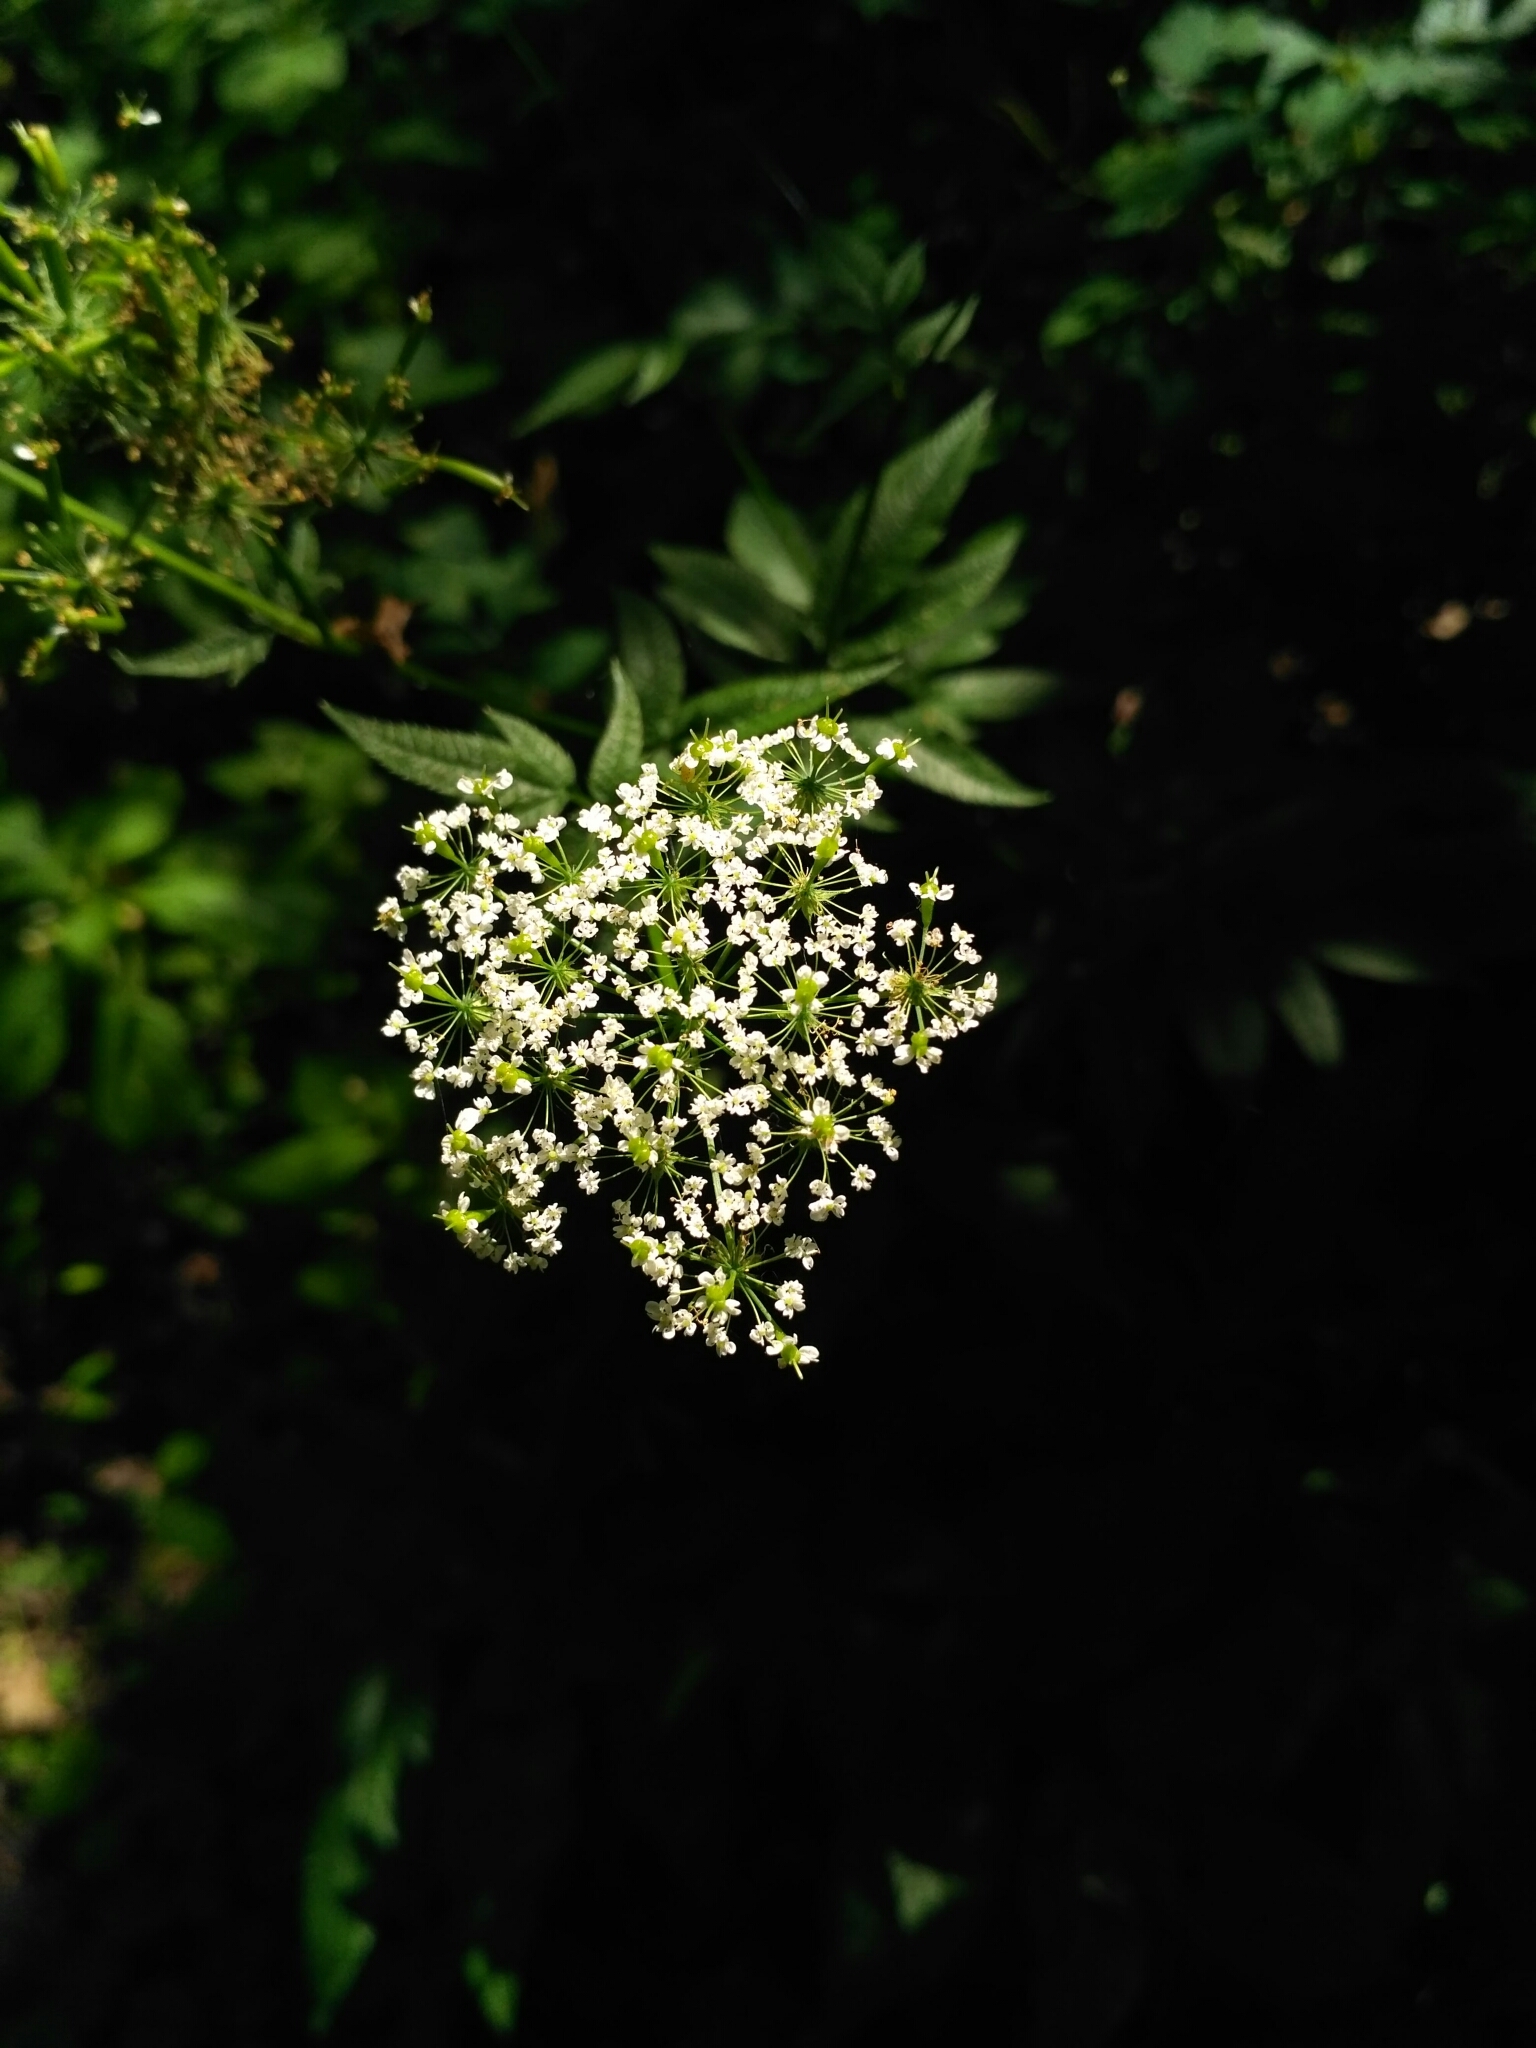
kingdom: Plantae
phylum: Tracheophyta
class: Magnoliopsida
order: Apiales
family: Apiaceae
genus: Chaerophyllum
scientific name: Chaerophyllum aromaticum
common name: Broadleaf chervil
